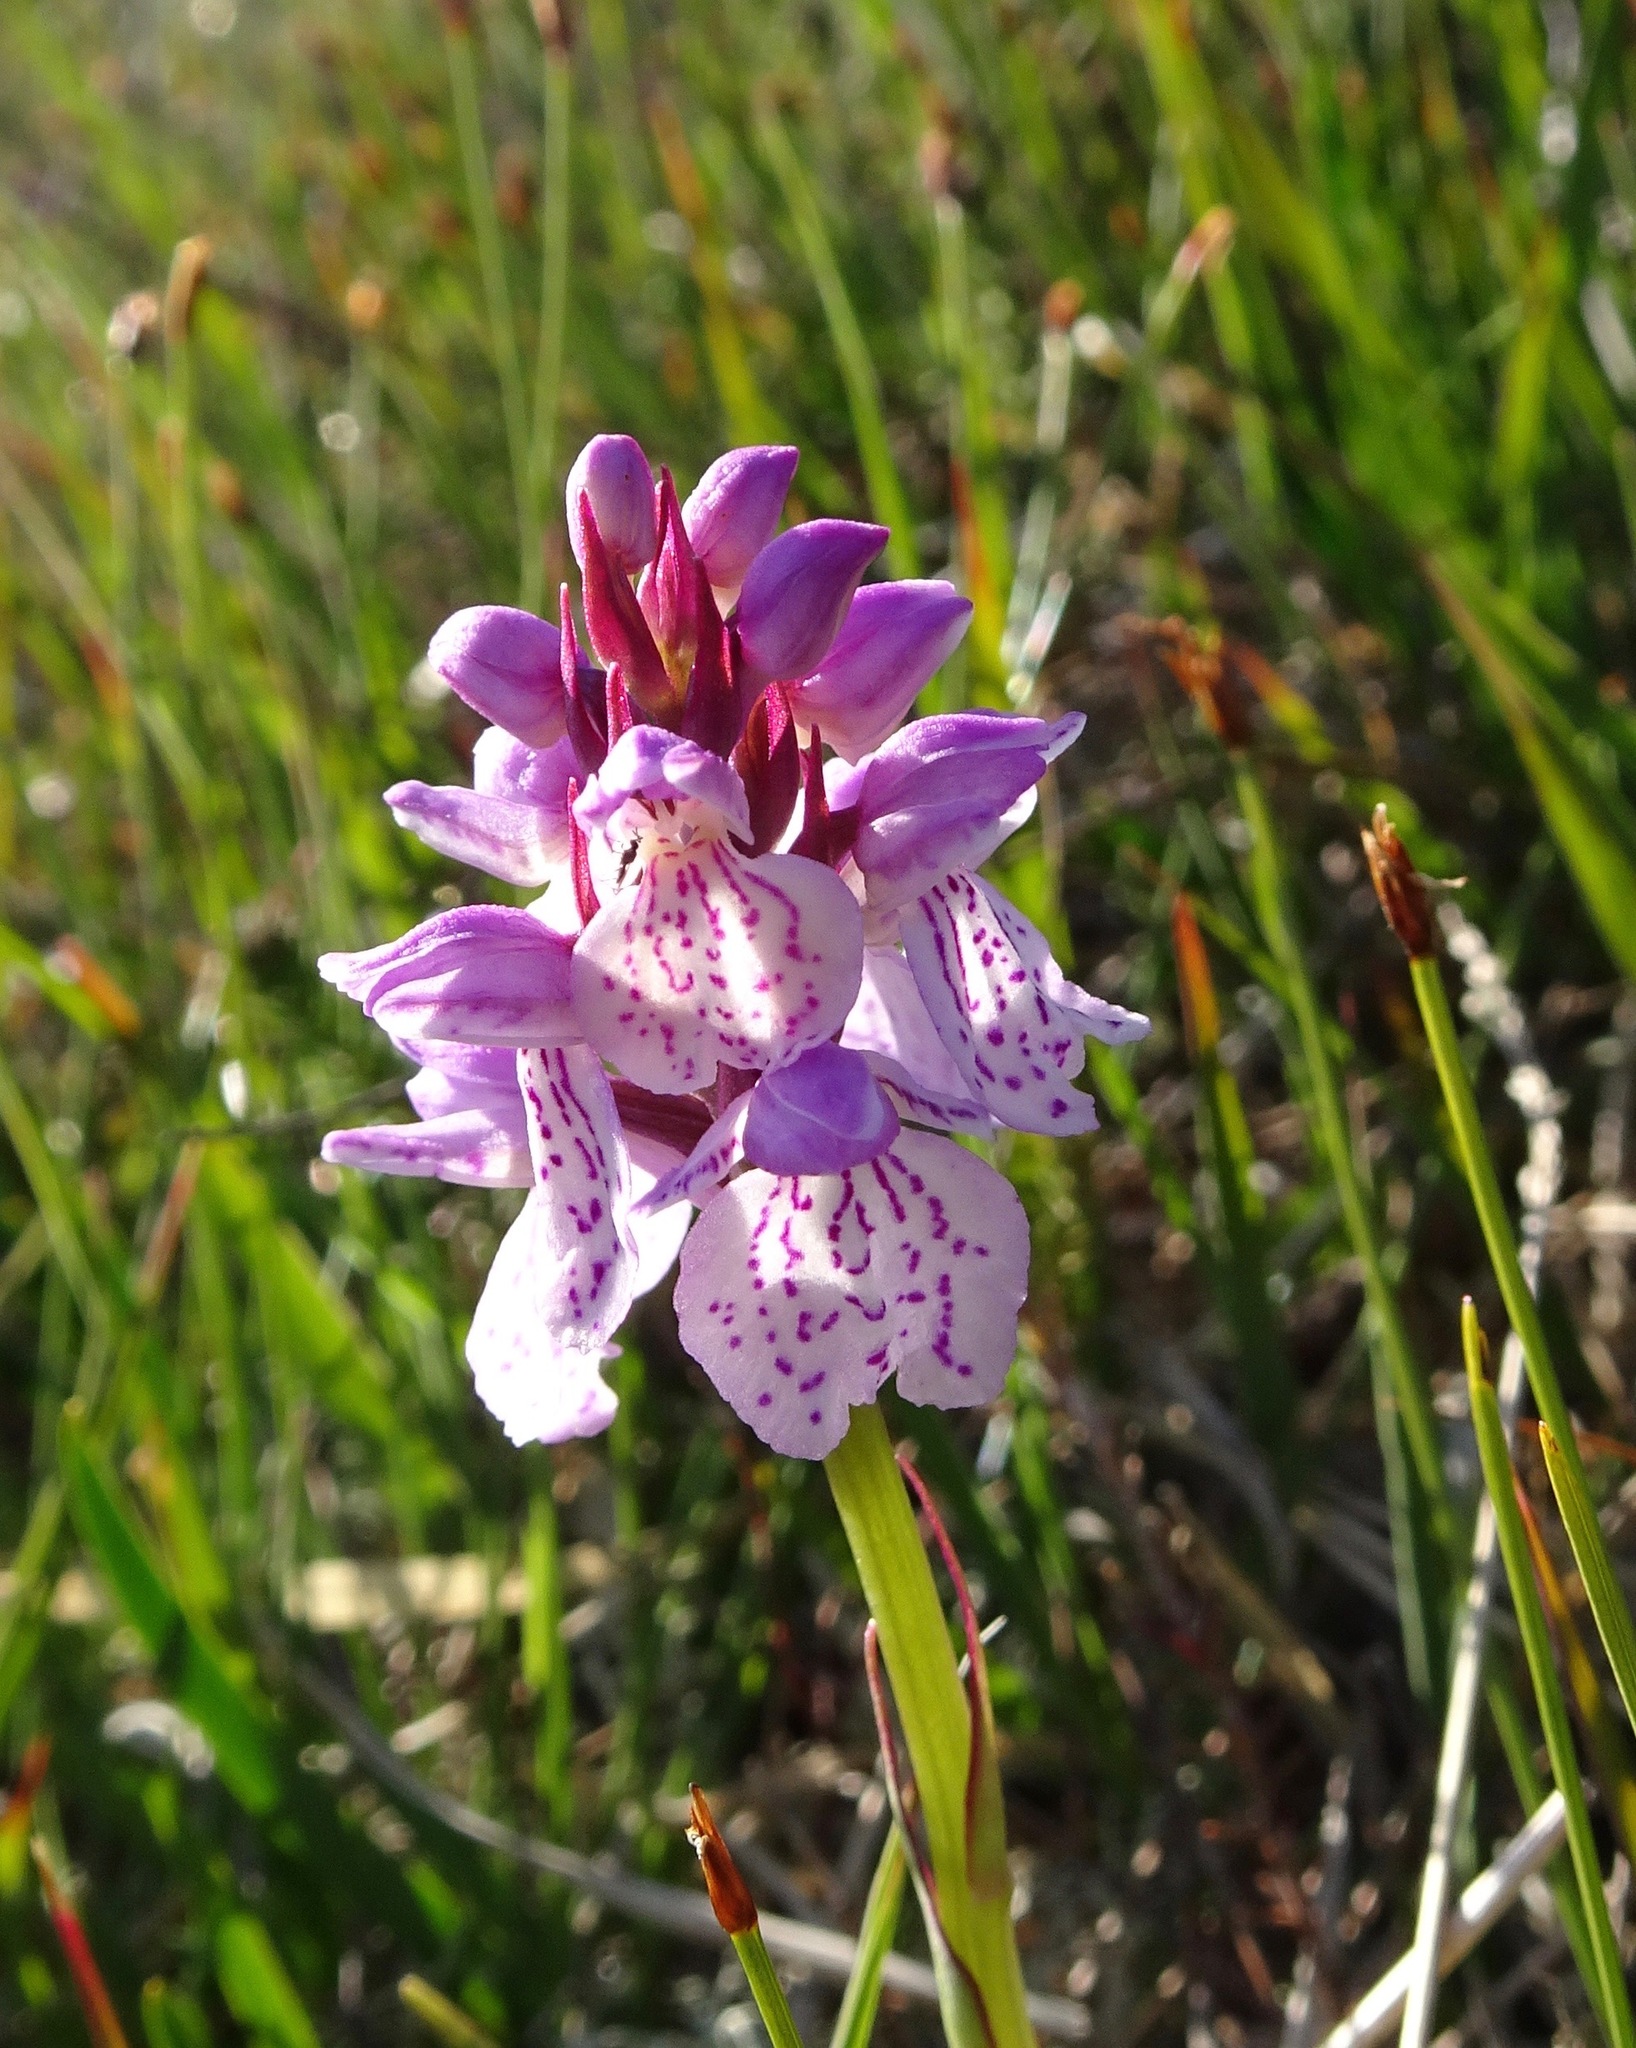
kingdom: Plantae
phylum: Tracheophyta
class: Liliopsida
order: Asparagales
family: Orchidaceae
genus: Dactylorhiza
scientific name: Dactylorhiza maculata
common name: Heath spotted-orchid
